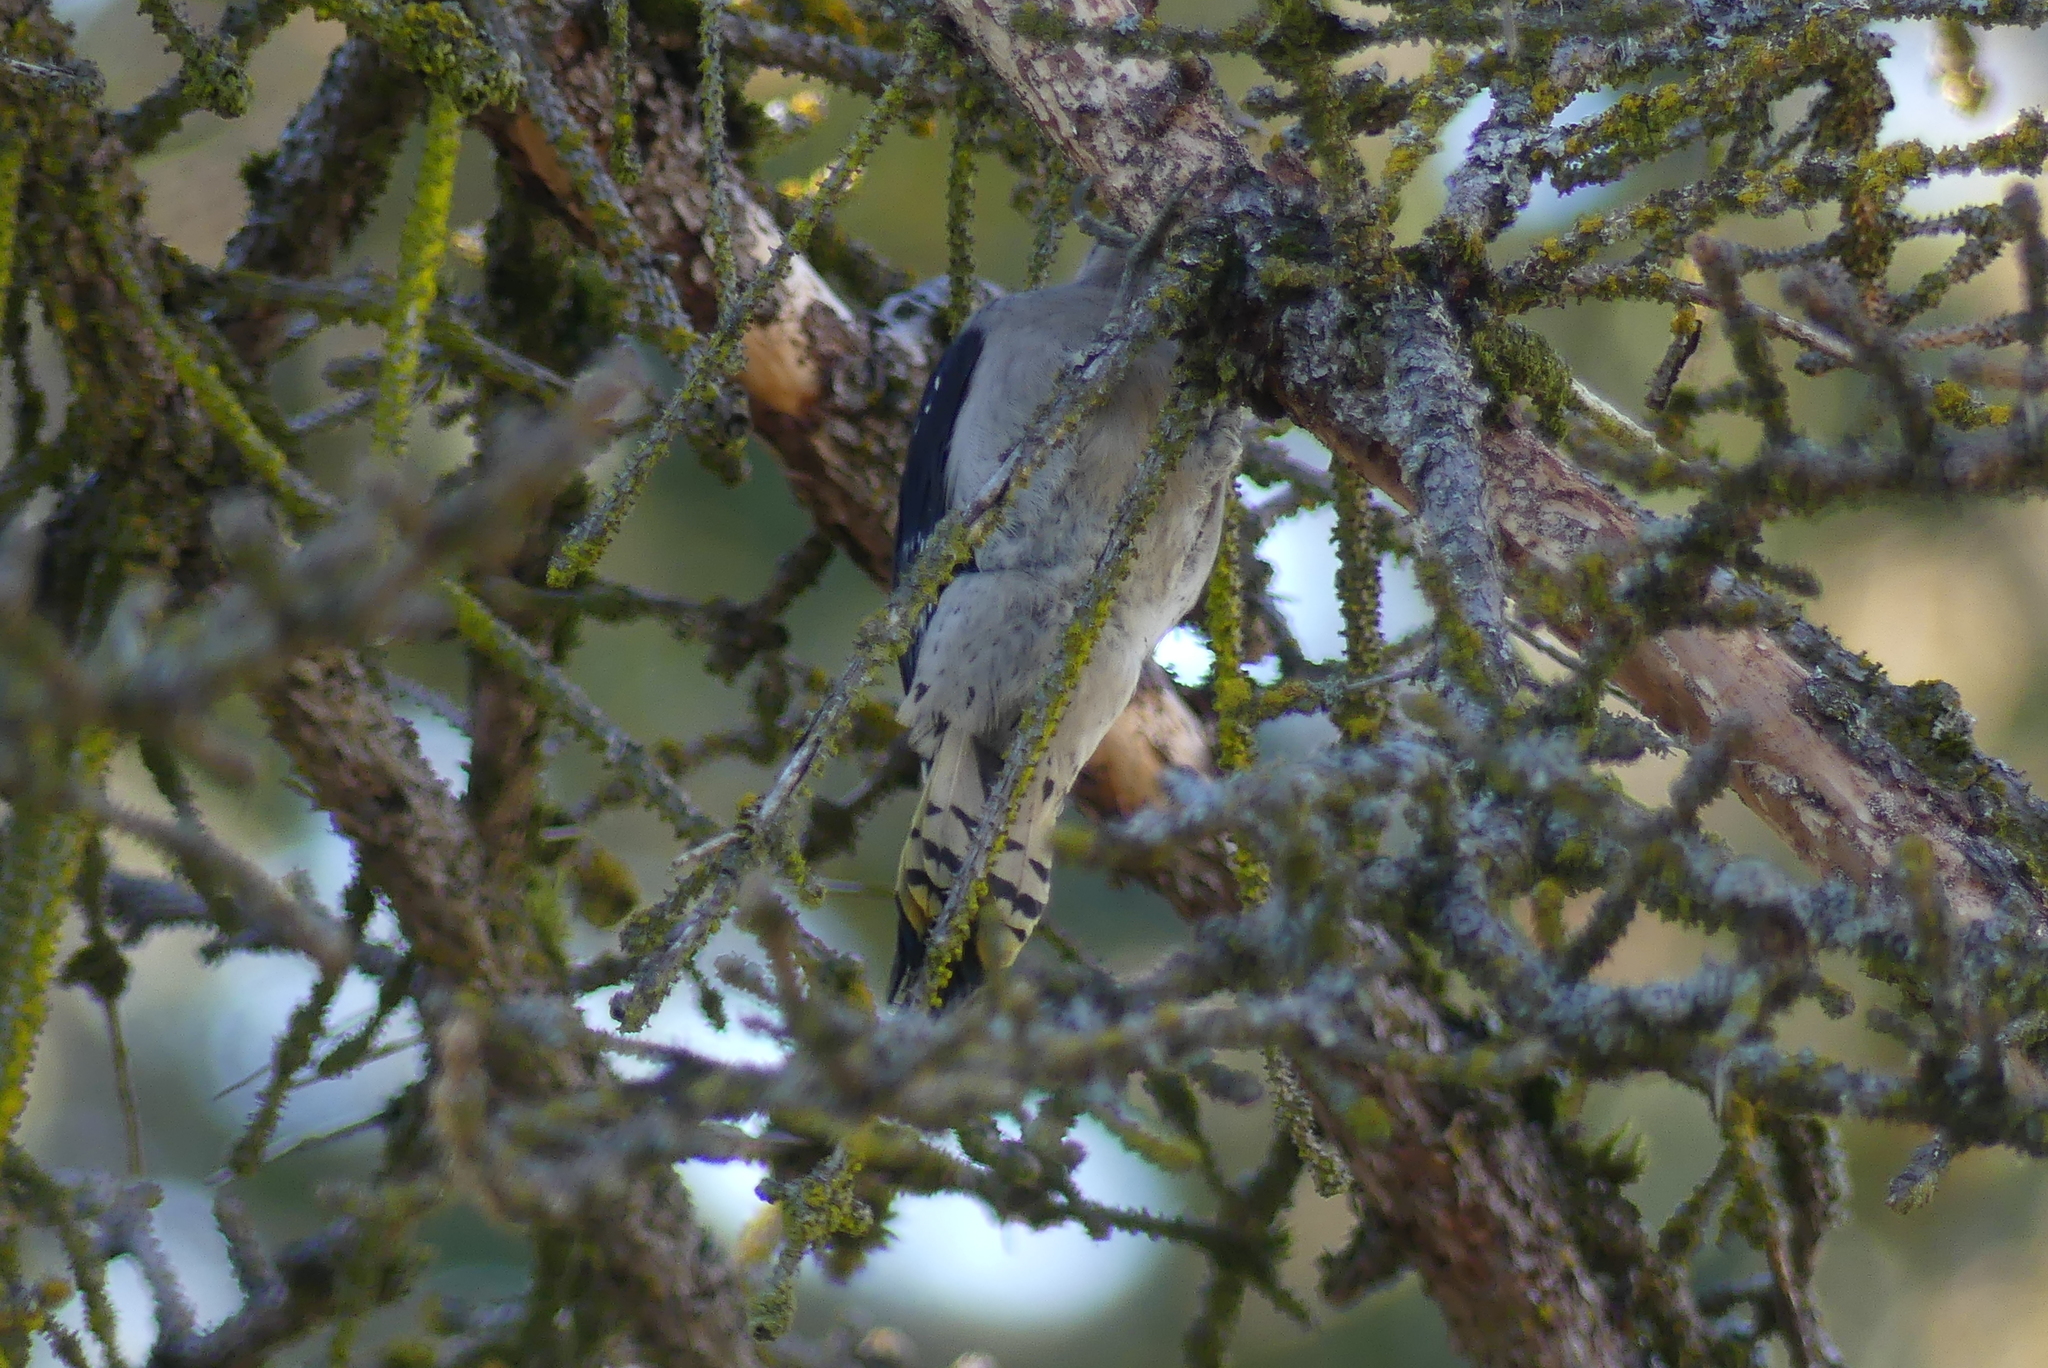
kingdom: Animalia
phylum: Chordata
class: Aves
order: Piciformes
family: Picidae
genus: Dryobates
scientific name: Dryobates pubescens
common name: Downy woodpecker
